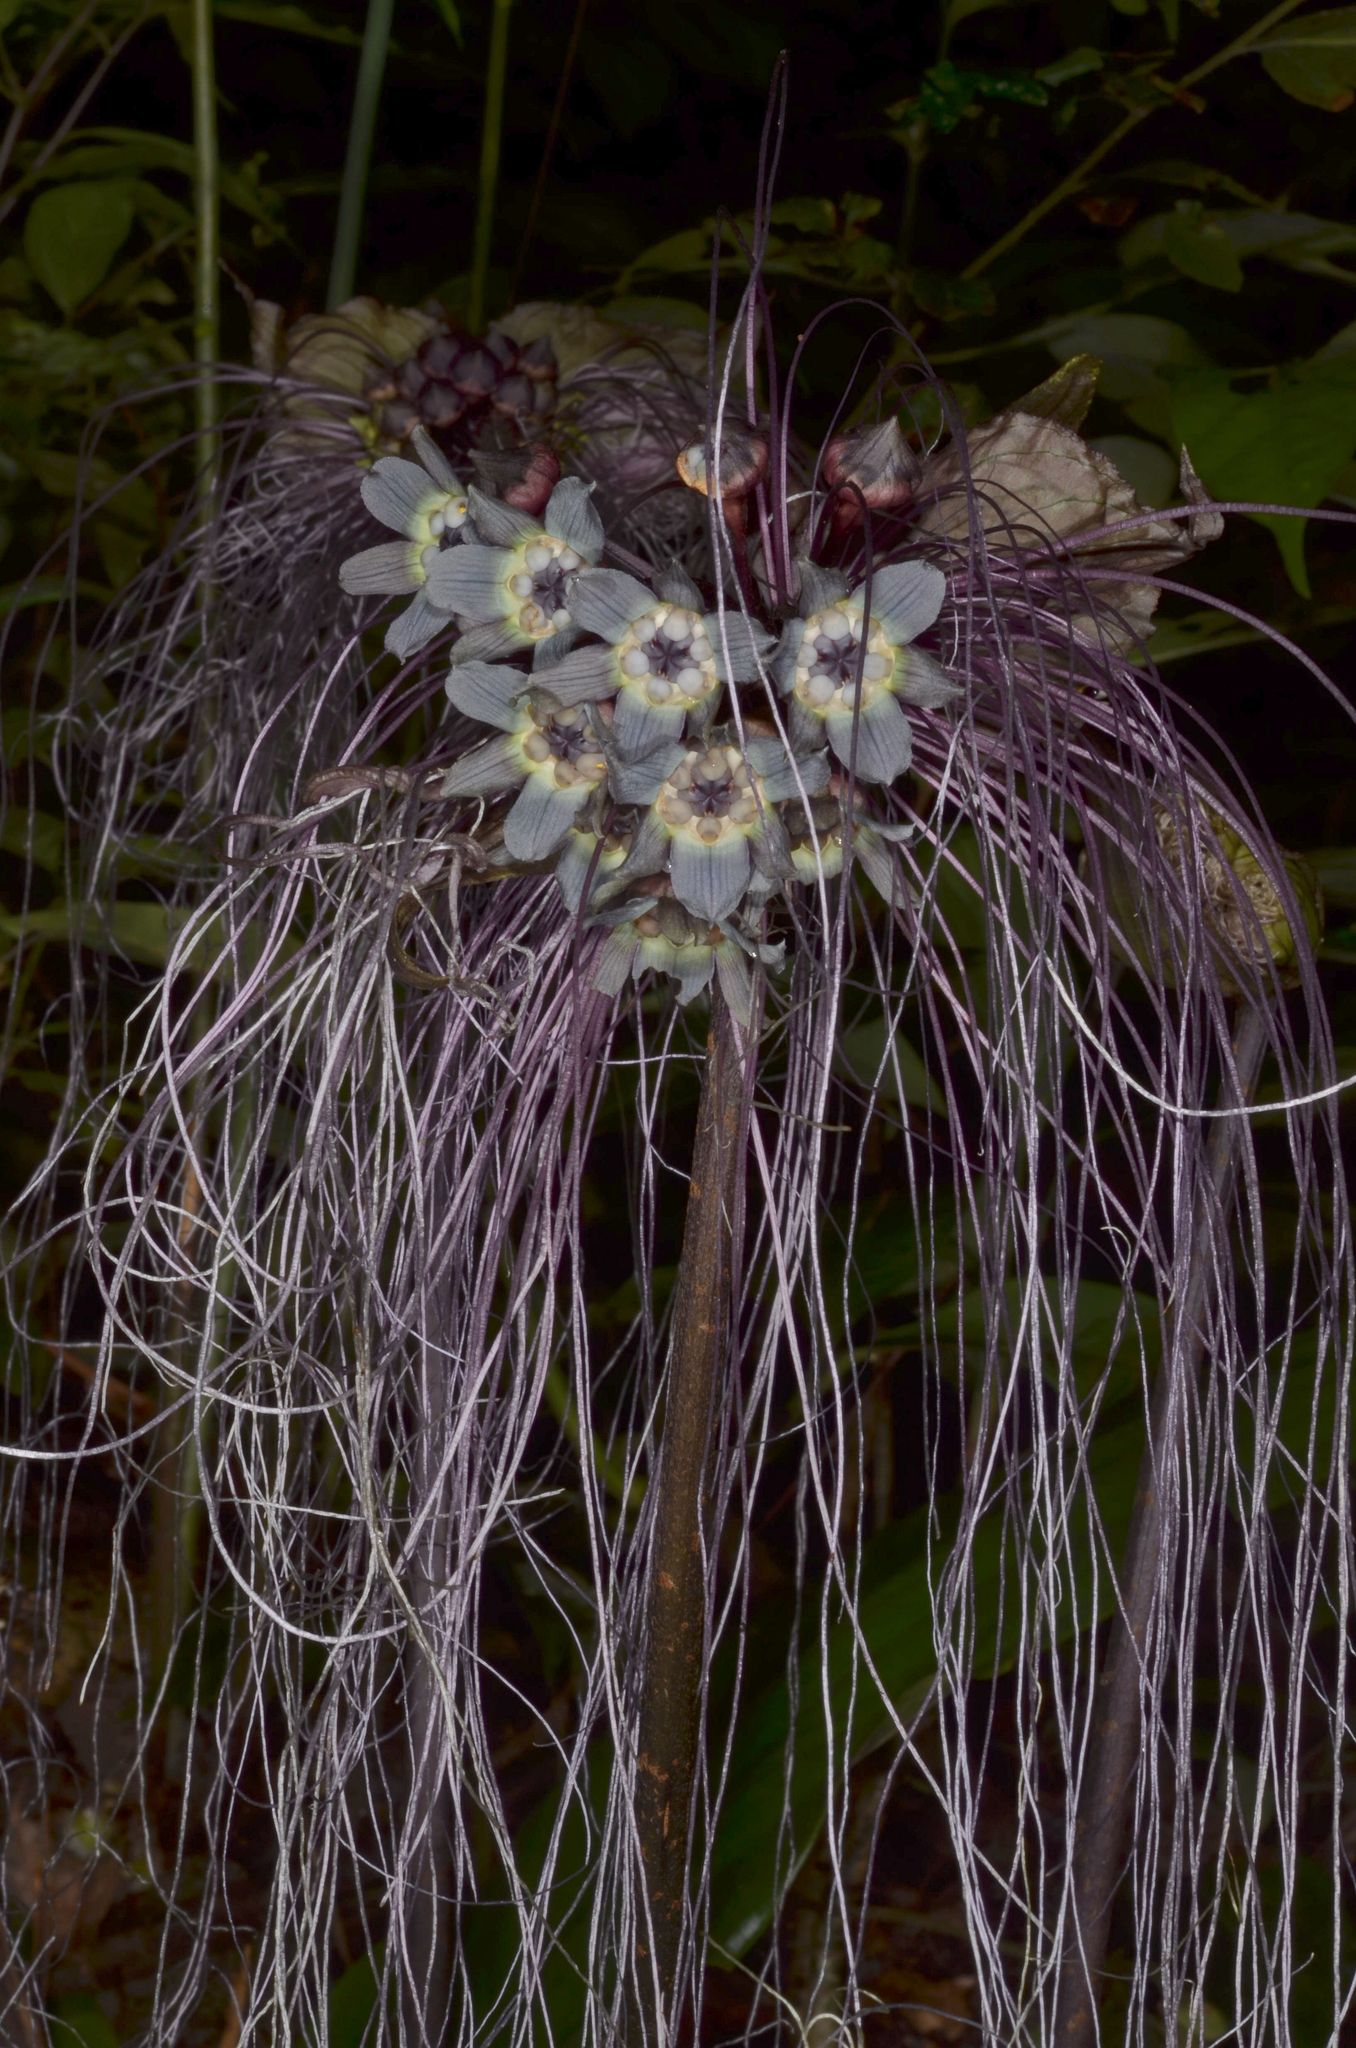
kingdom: Plantae
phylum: Tracheophyta
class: Liliopsida
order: Dioscoreales
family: Dioscoreaceae
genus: Tacca
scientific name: Tacca chantrieri
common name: Cat's-whiskers
